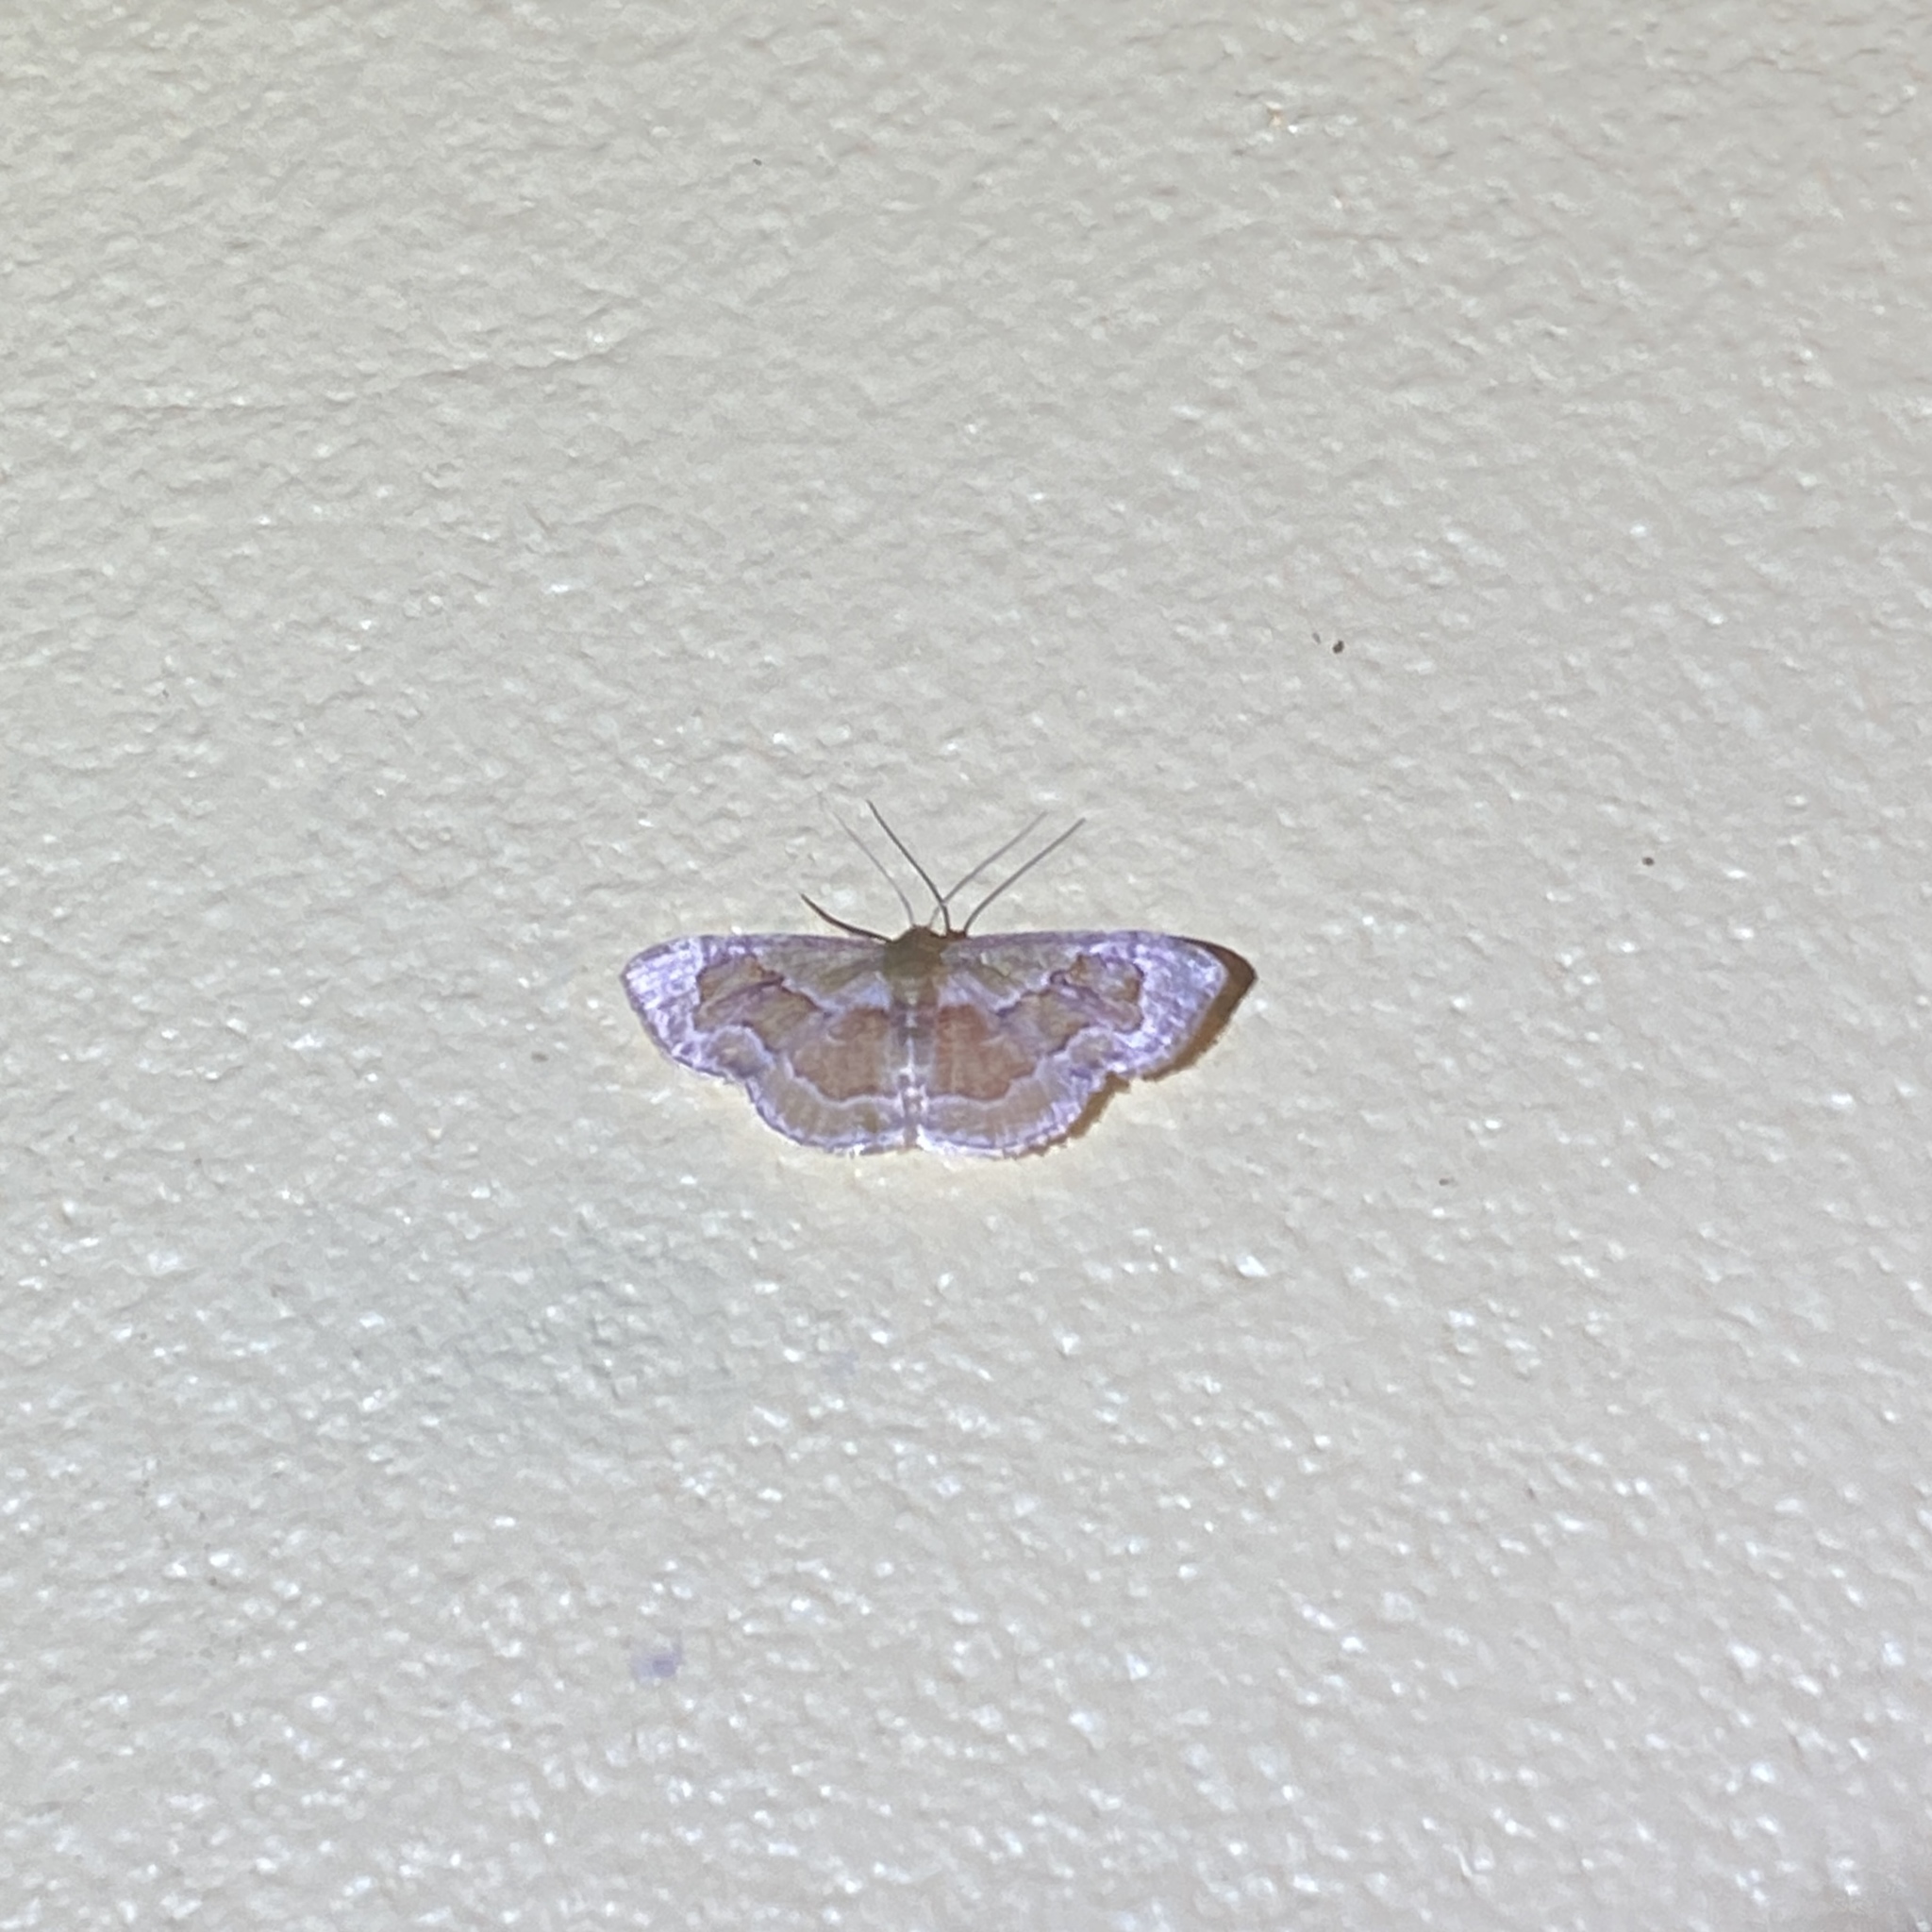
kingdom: Animalia
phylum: Arthropoda
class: Insecta
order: Lepidoptera
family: Geometridae
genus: Leptostales
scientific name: Leptostales adela
